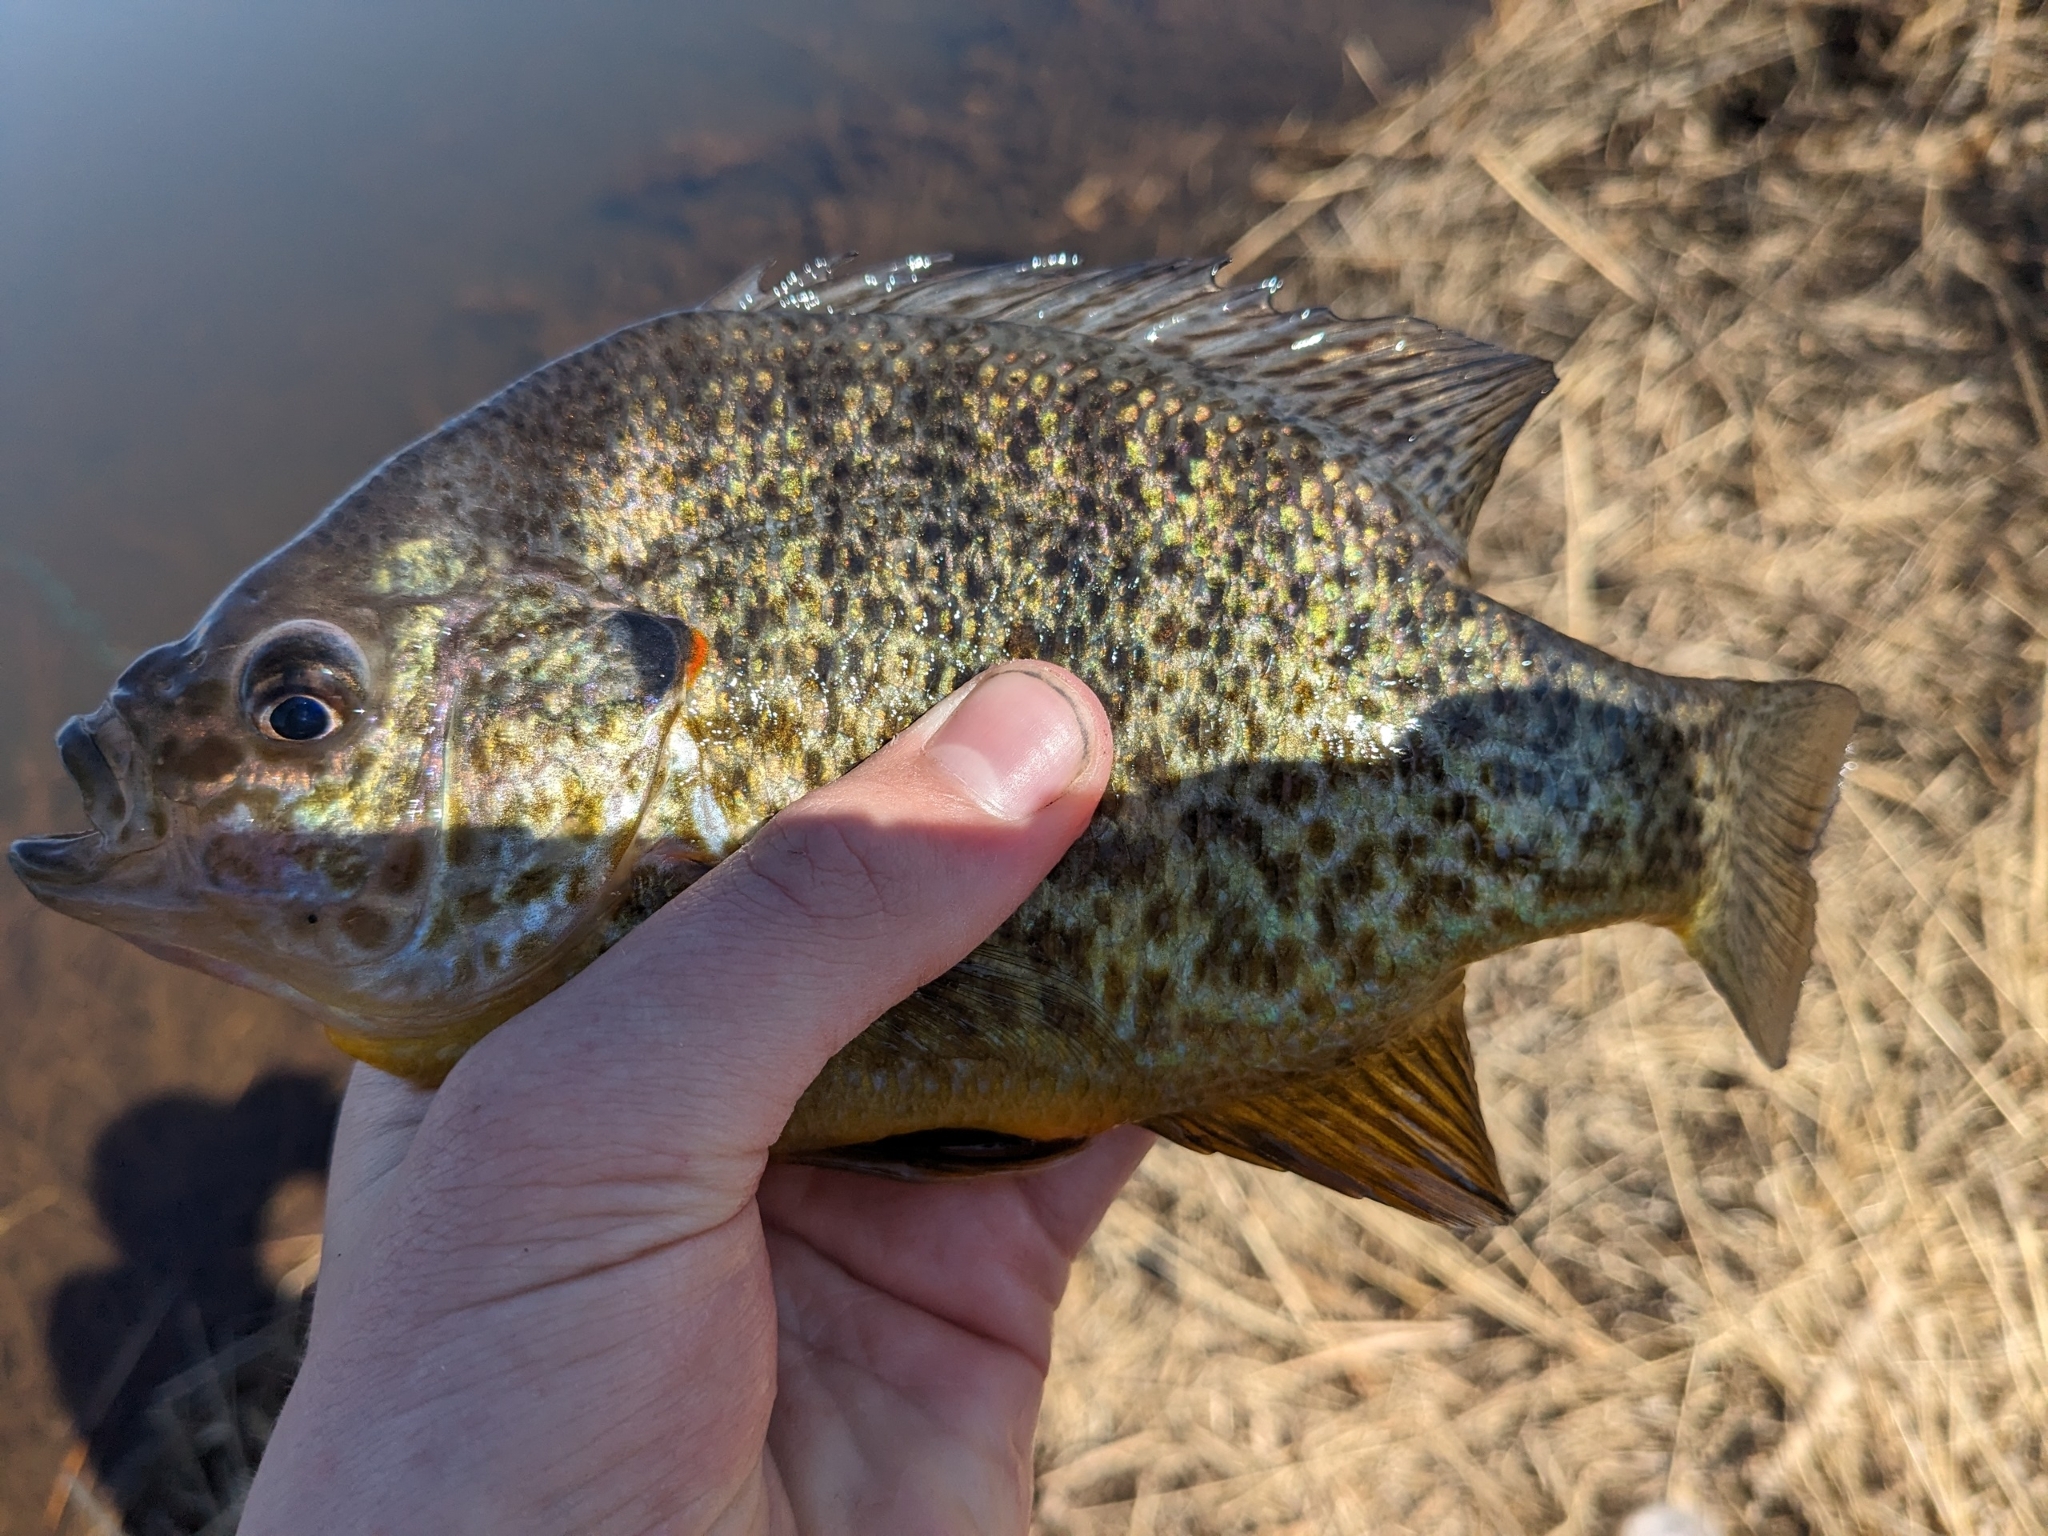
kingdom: Animalia
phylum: Chordata
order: Perciformes
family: Centrarchidae
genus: Lepomis
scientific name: Lepomis gibbosus
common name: Pumpkinseed
